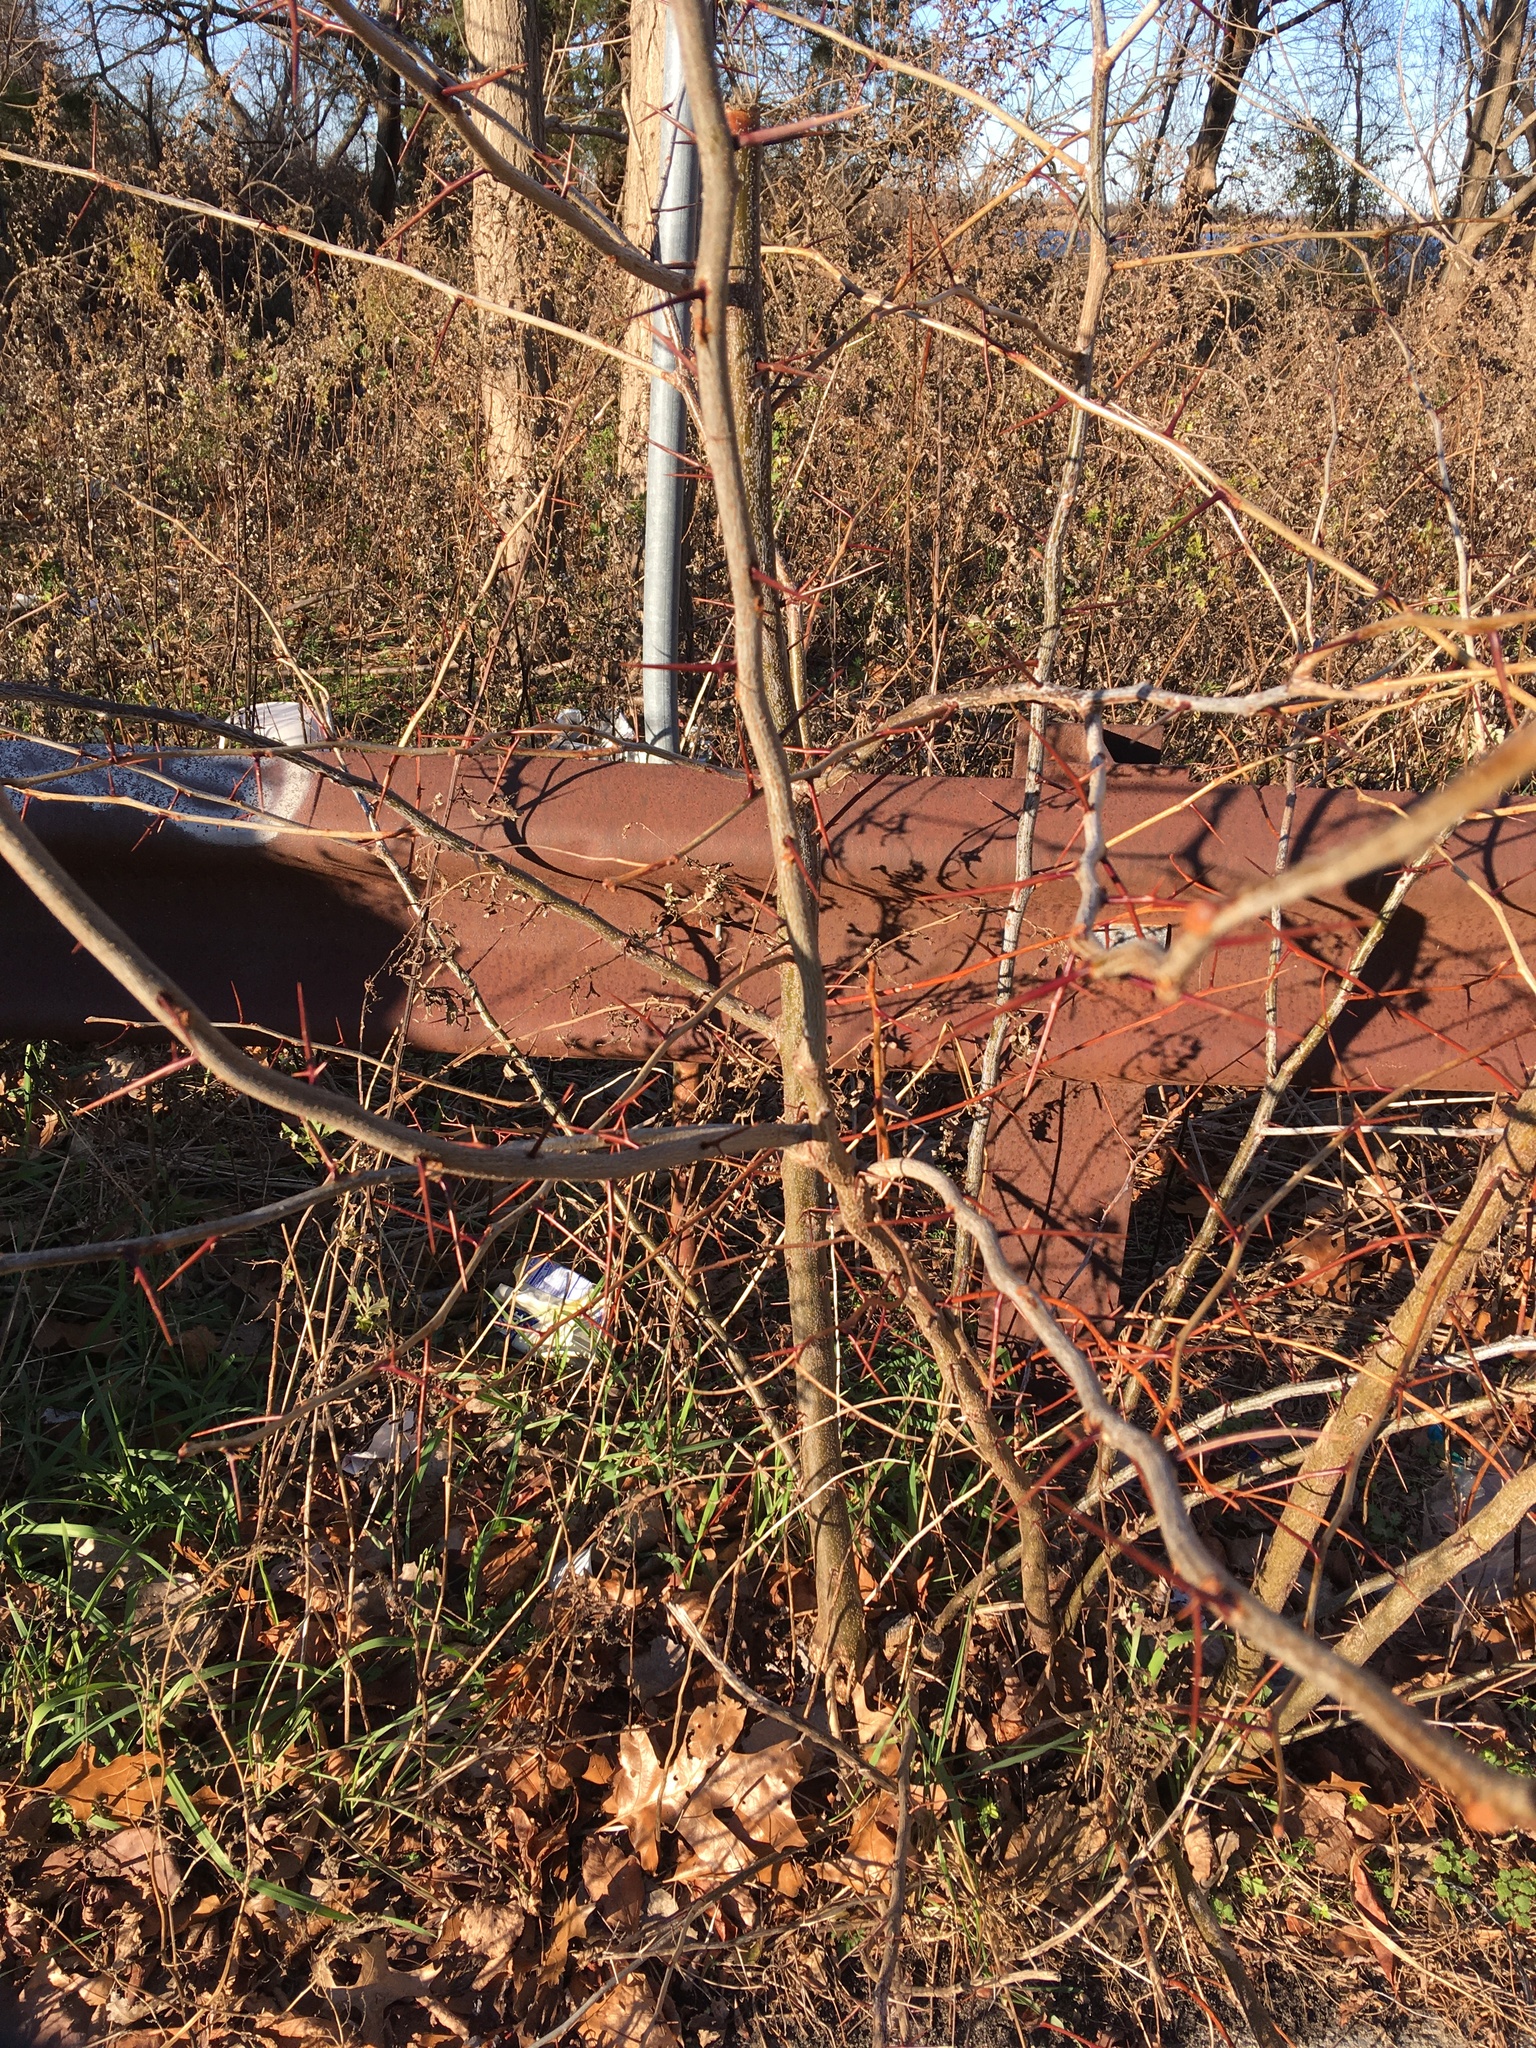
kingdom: Plantae
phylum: Tracheophyta
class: Magnoliopsida
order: Fabales
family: Fabaceae
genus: Gleditsia
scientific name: Gleditsia triacanthos
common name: Common honeylocust
